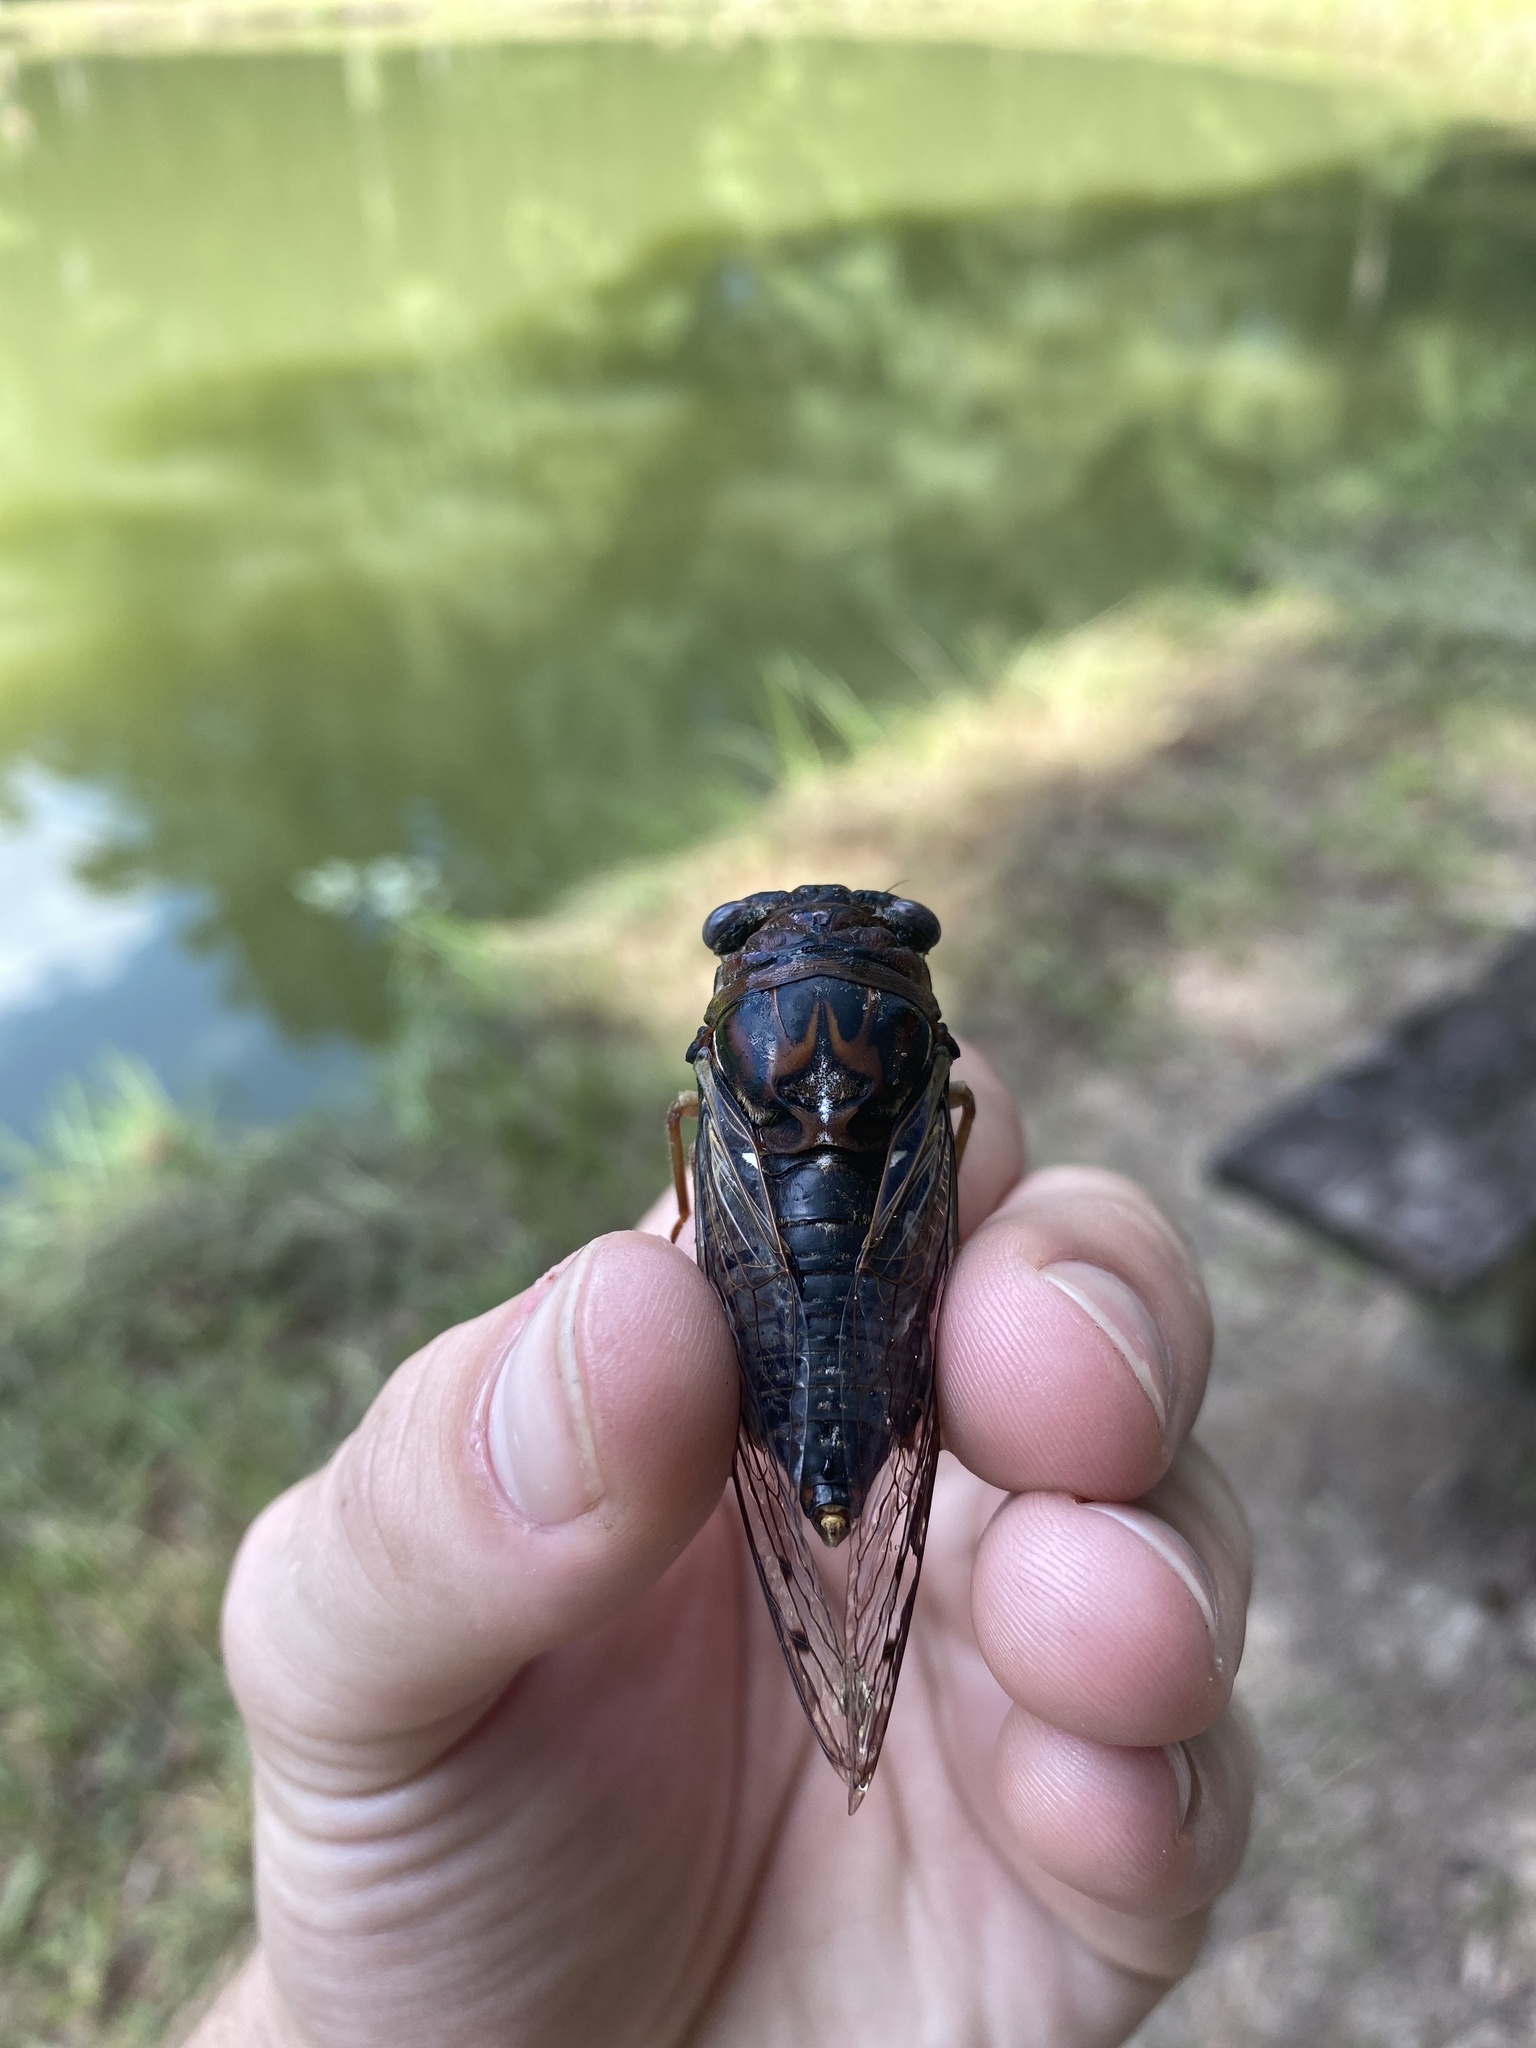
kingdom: Animalia
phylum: Arthropoda
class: Insecta
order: Hemiptera
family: Cicadidae
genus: Megatibicen
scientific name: Megatibicen figuratus
